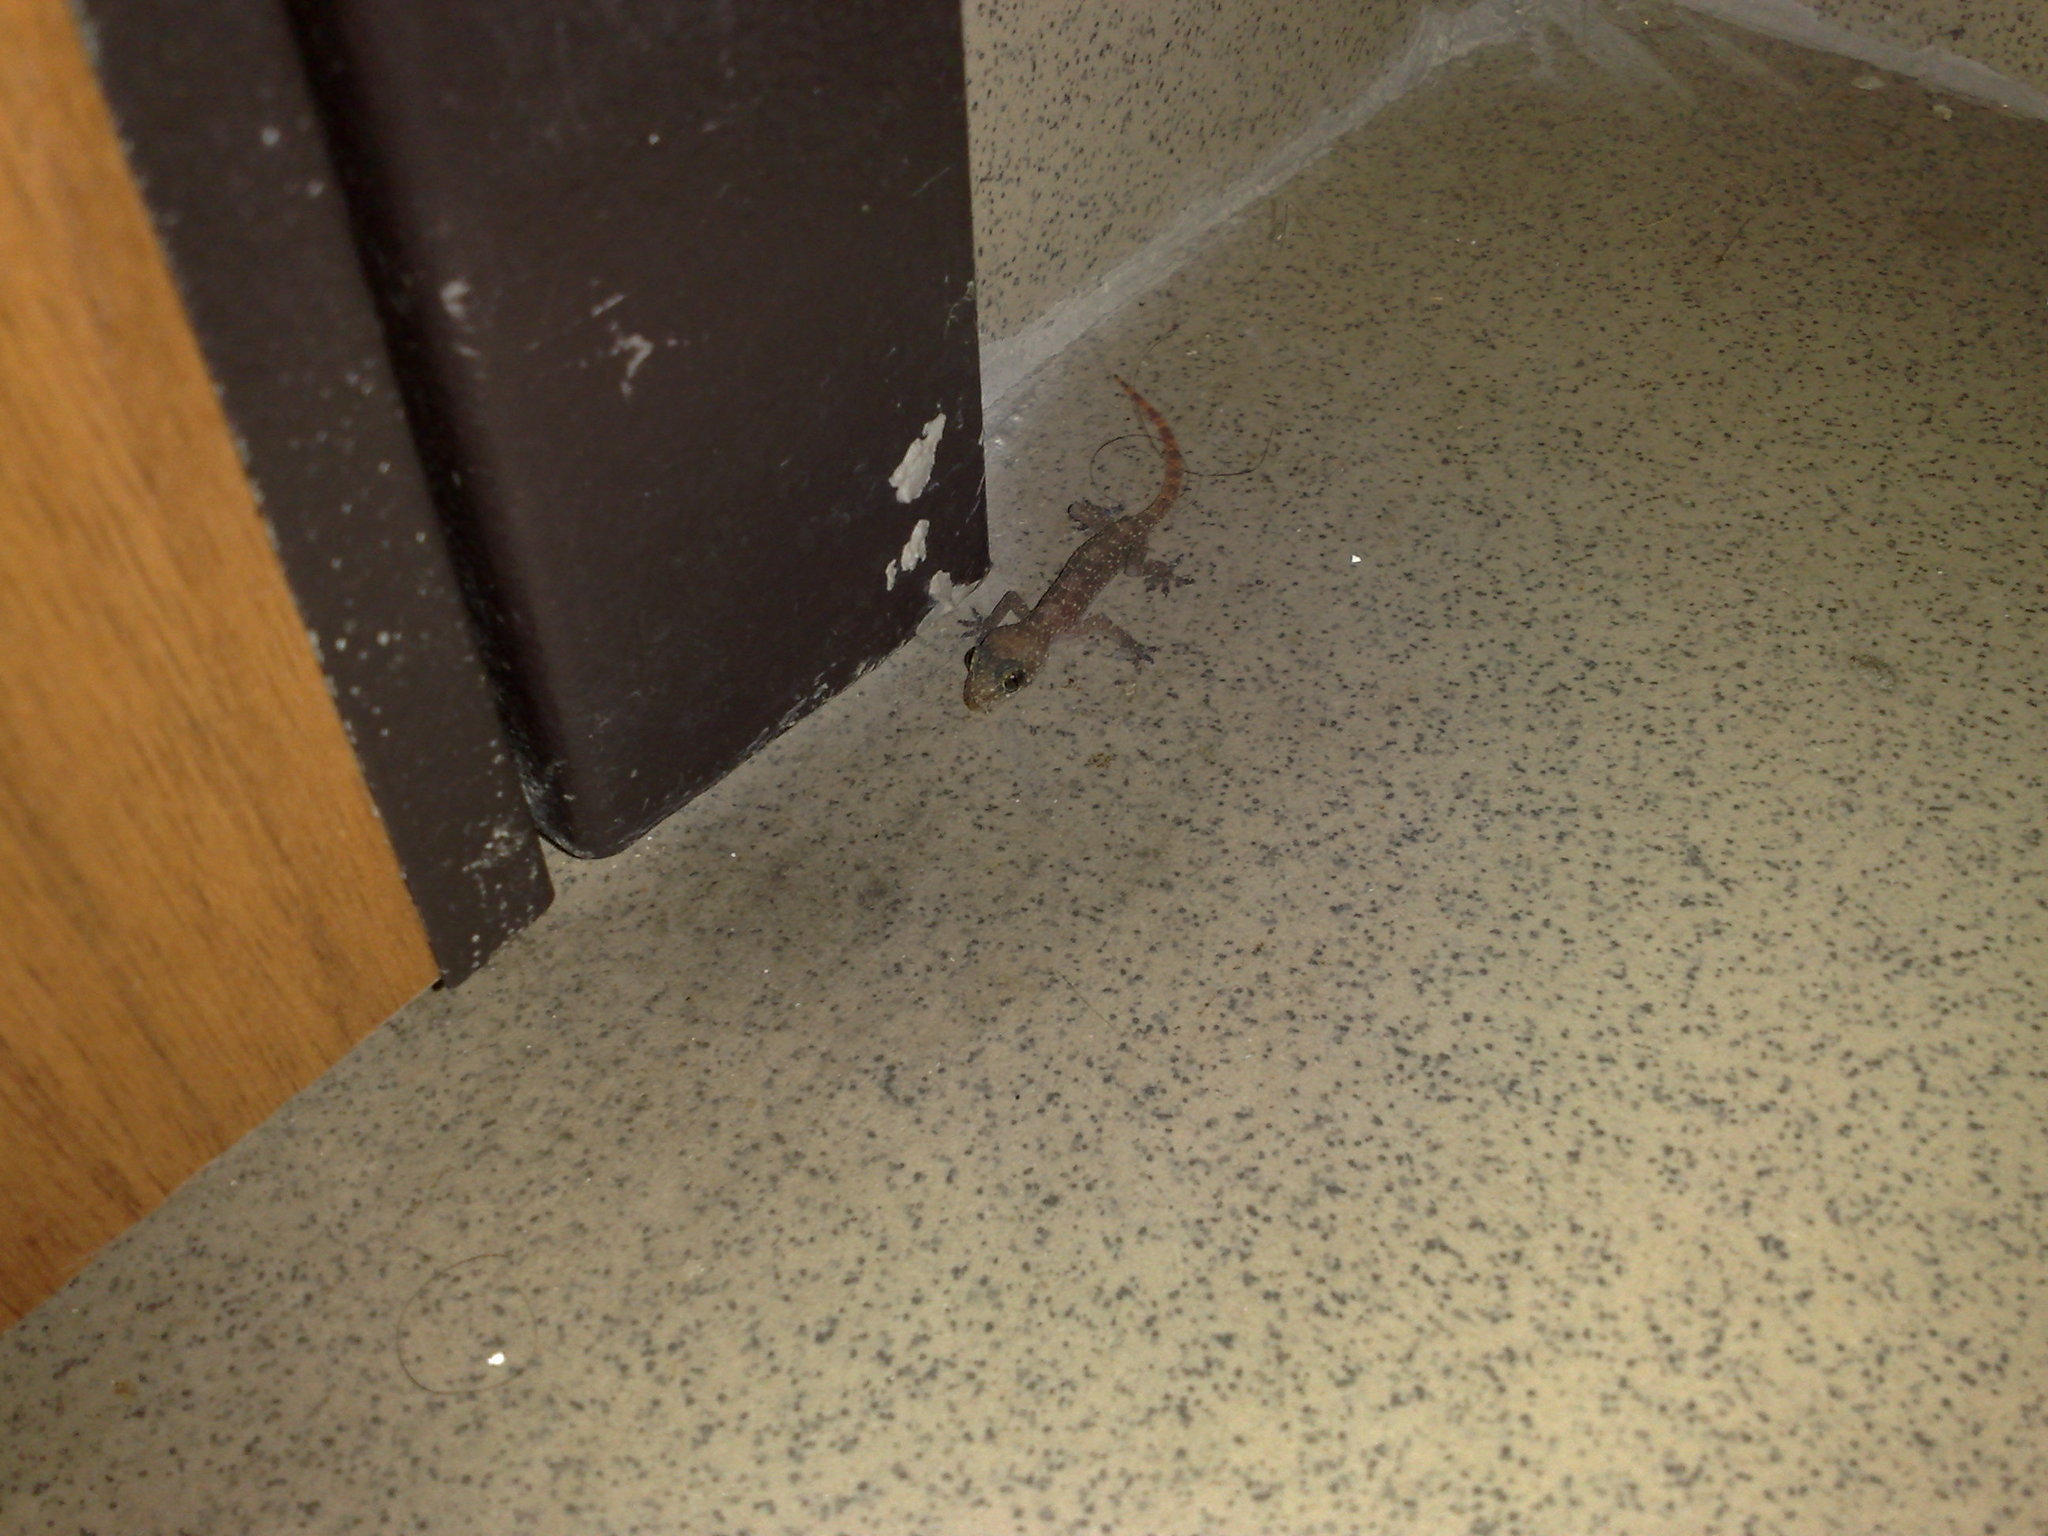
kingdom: Animalia
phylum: Chordata
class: Squamata
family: Gekkonidae
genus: Hemidactylus
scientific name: Hemidactylus angulatus
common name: Brook's house gecko
